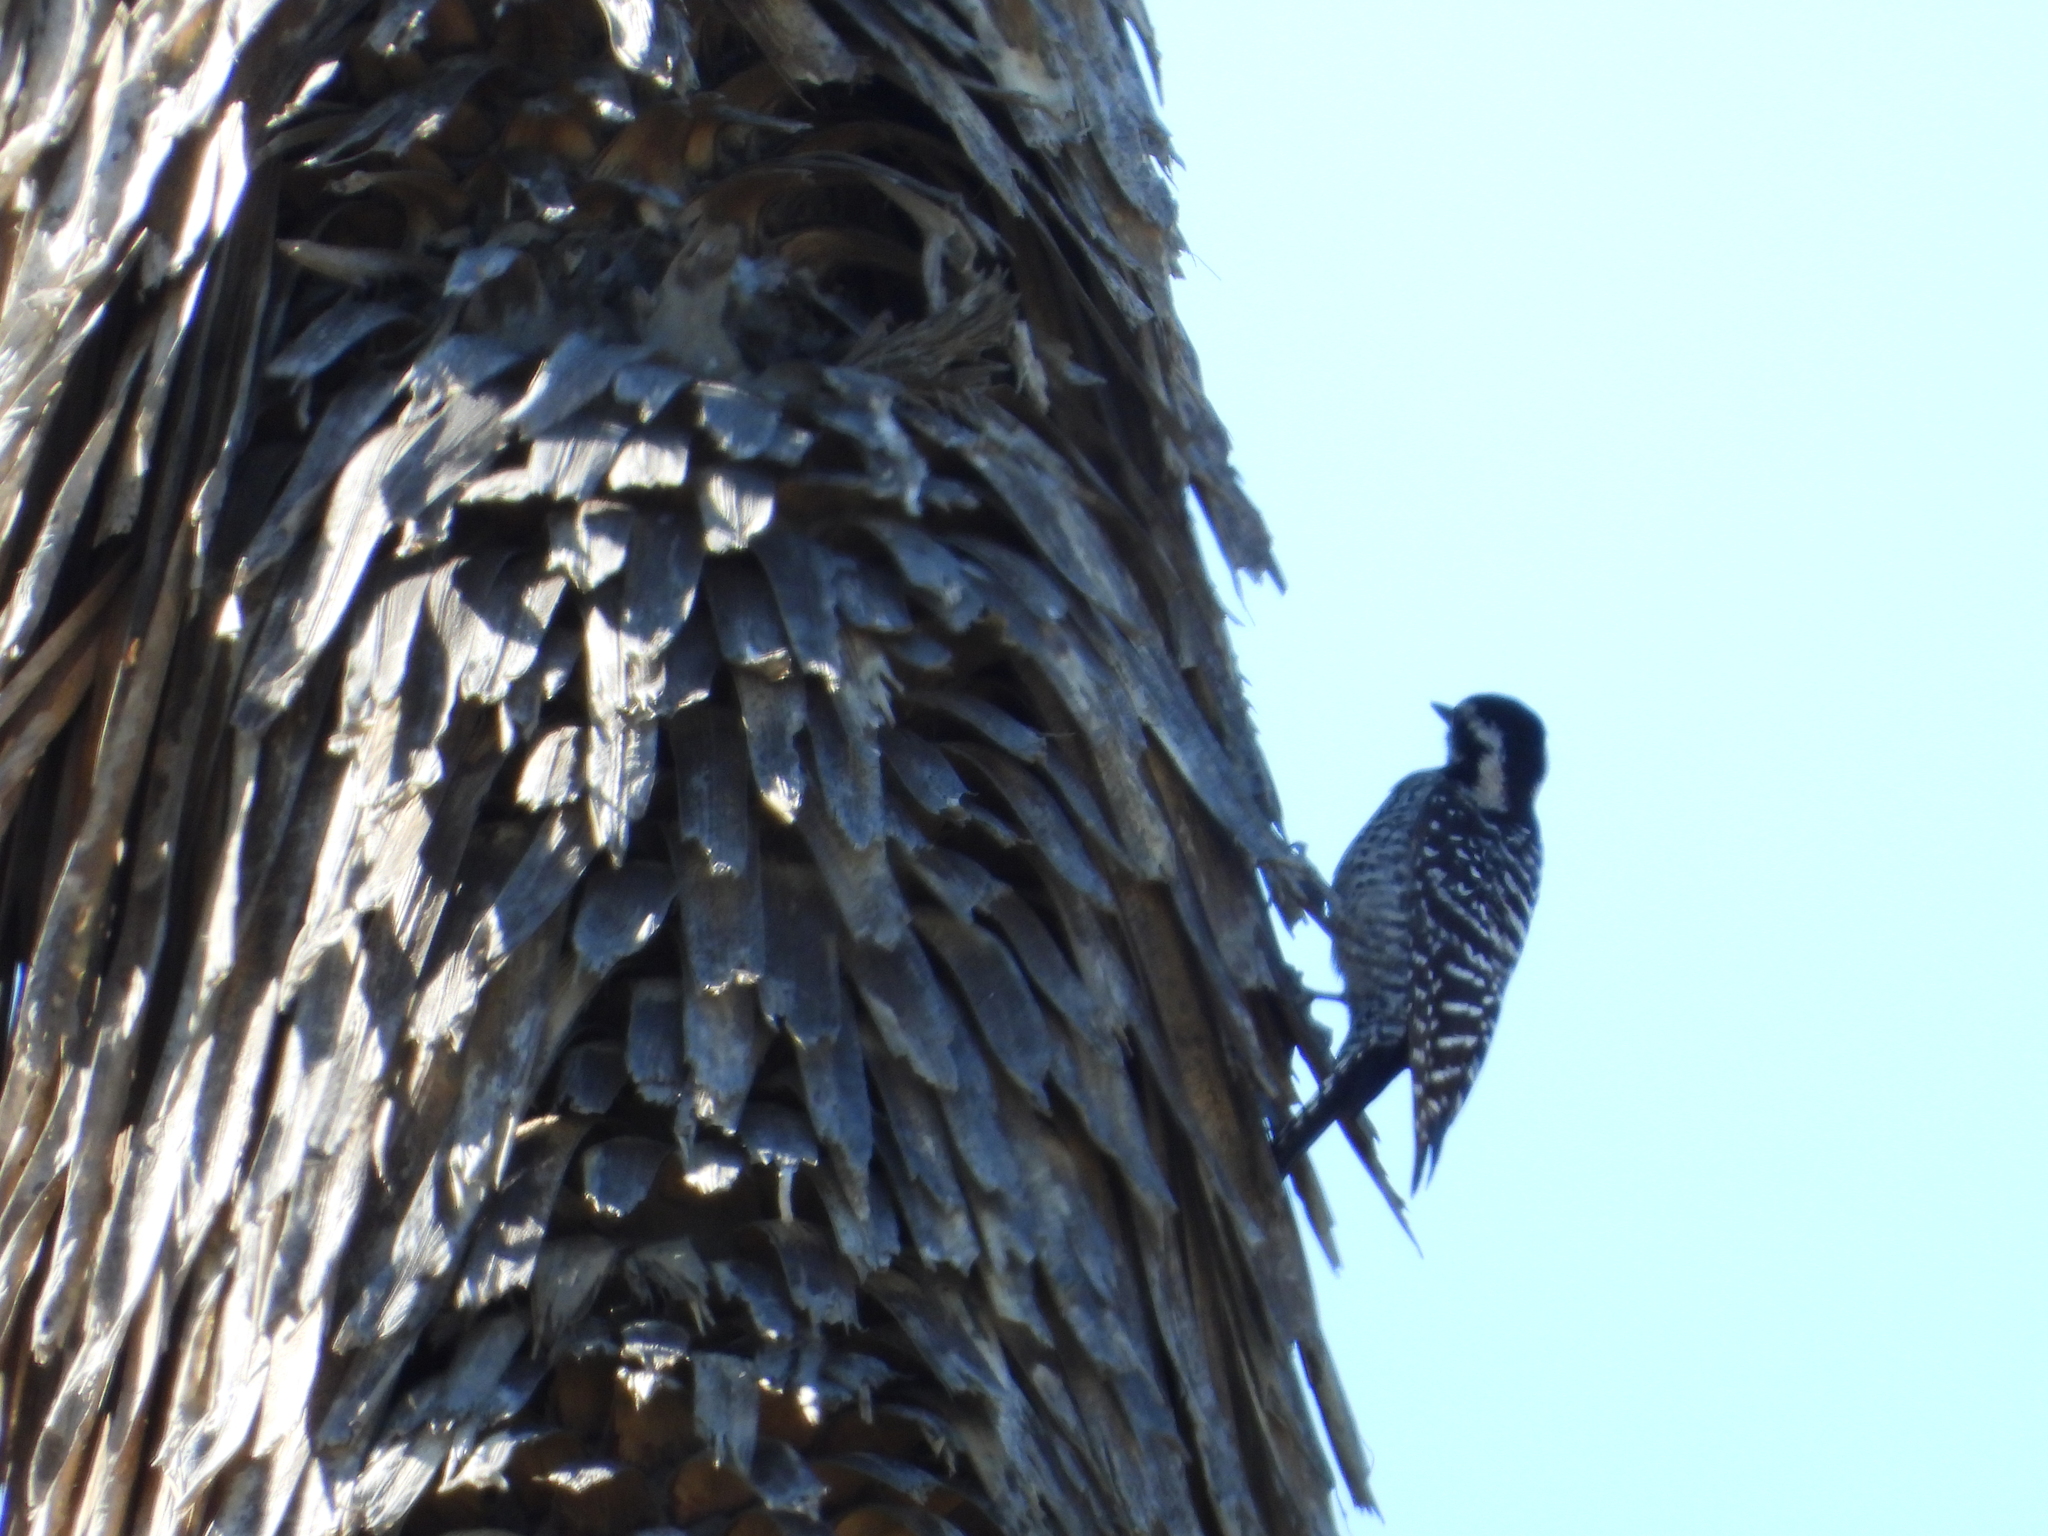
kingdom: Animalia
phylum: Chordata
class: Aves
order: Piciformes
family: Picidae
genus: Dryobates
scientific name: Dryobates scalaris
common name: Ladder-backed woodpecker
